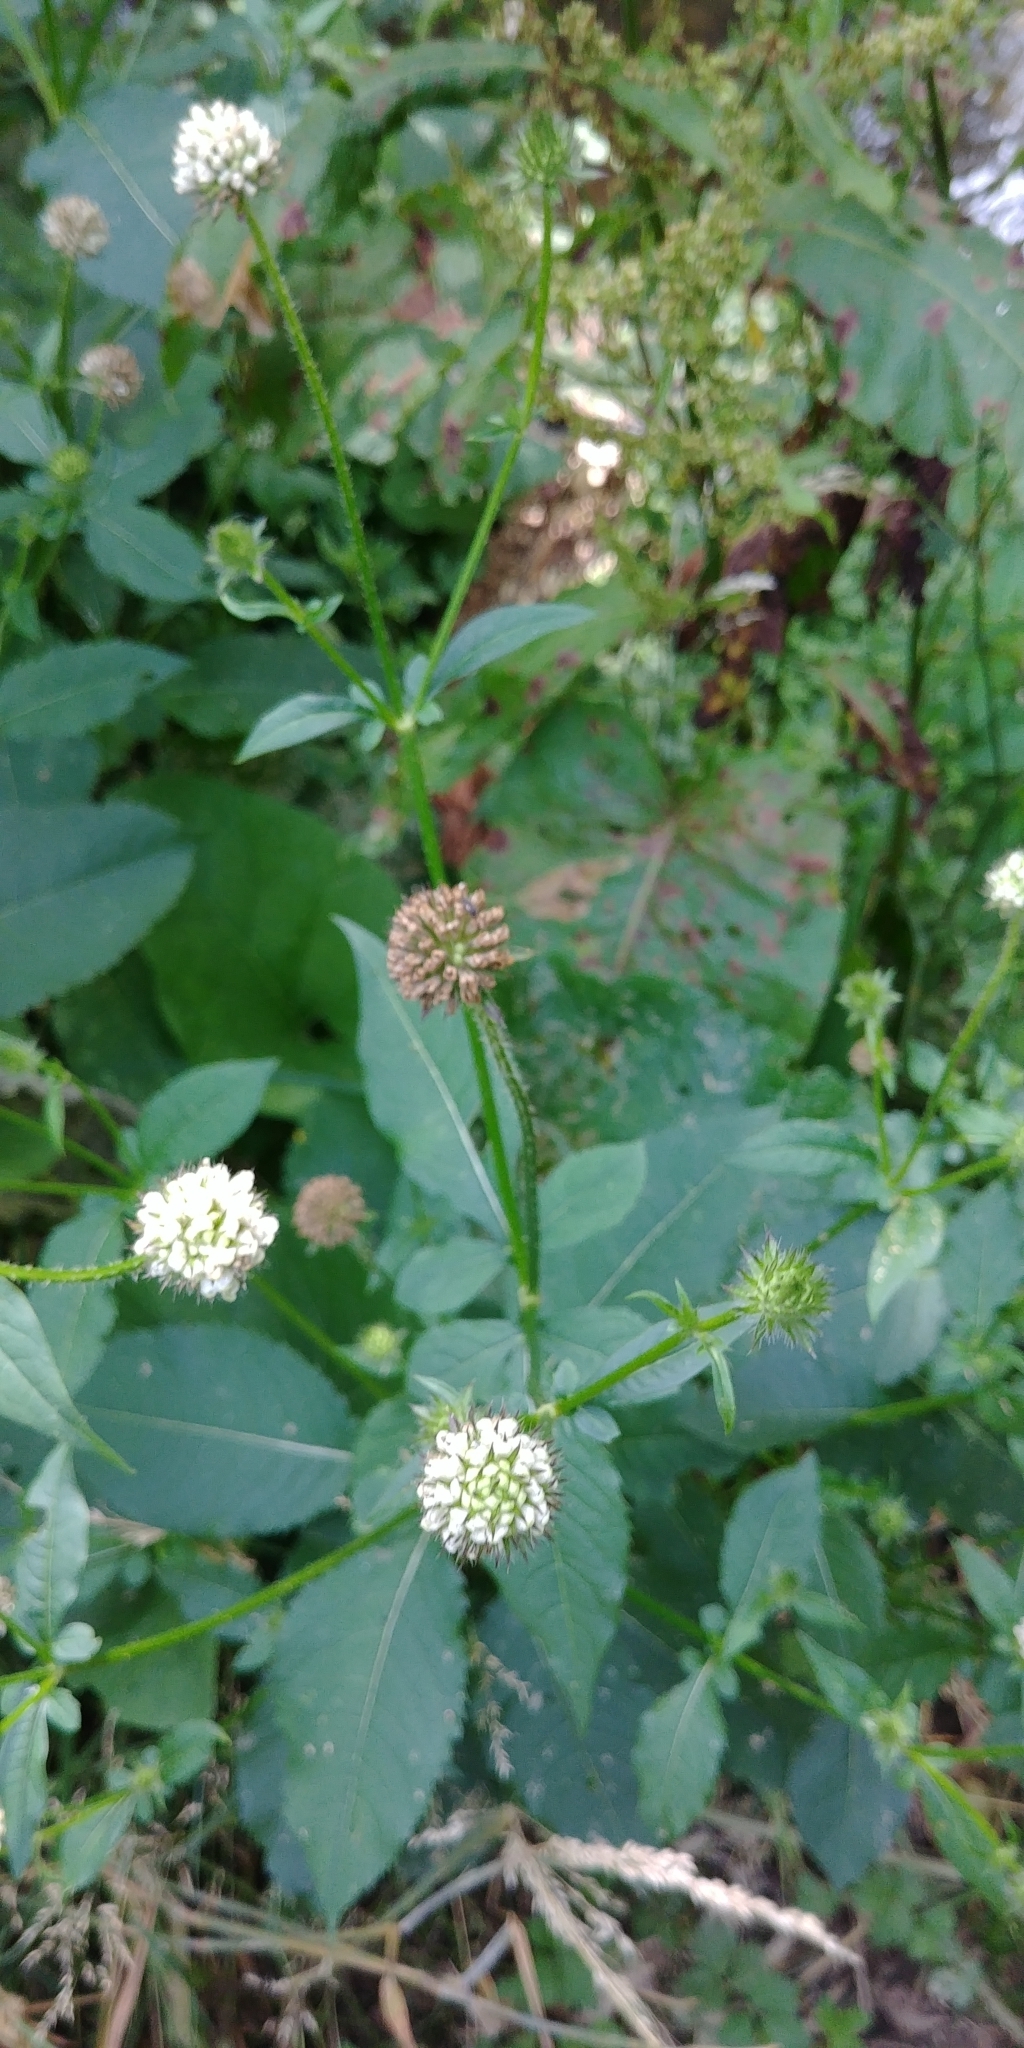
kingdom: Plantae
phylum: Tracheophyta
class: Magnoliopsida
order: Dipsacales
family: Caprifoliaceae
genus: Dipsacus
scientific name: Dipsacus pilosus
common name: Small teasel
